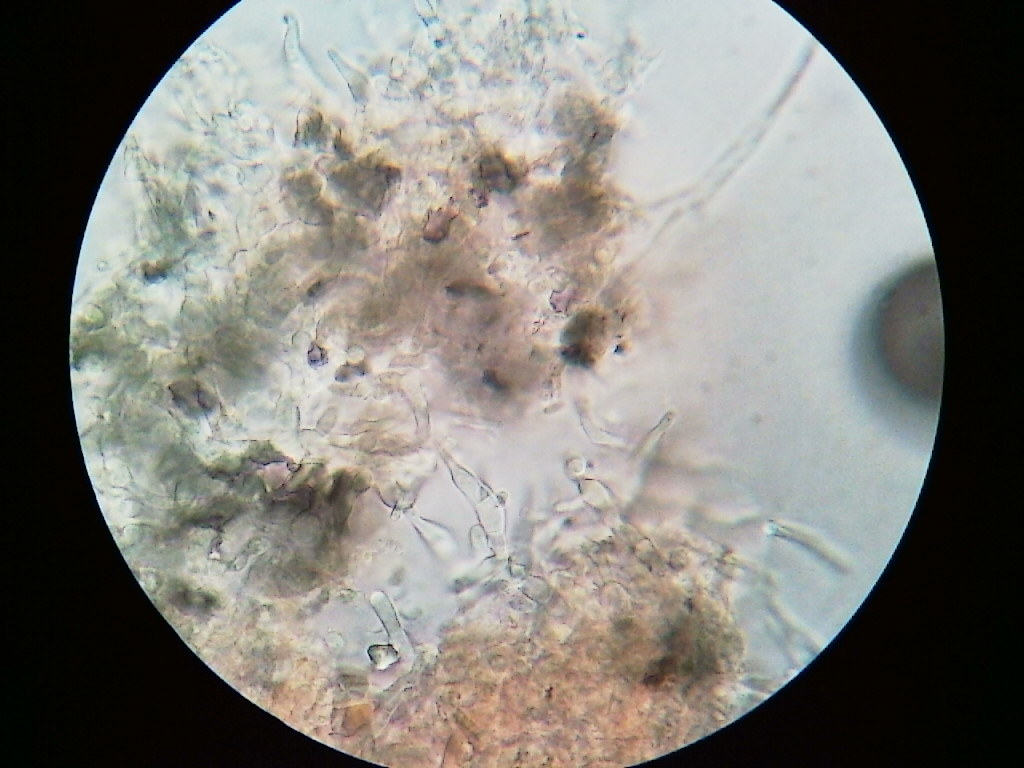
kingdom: Bacteria
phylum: Proteobacteria
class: Gammaproteobacteria
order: Enterobacterales
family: Enterobacteriaceae
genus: Serratia
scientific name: Serratia marcescens
